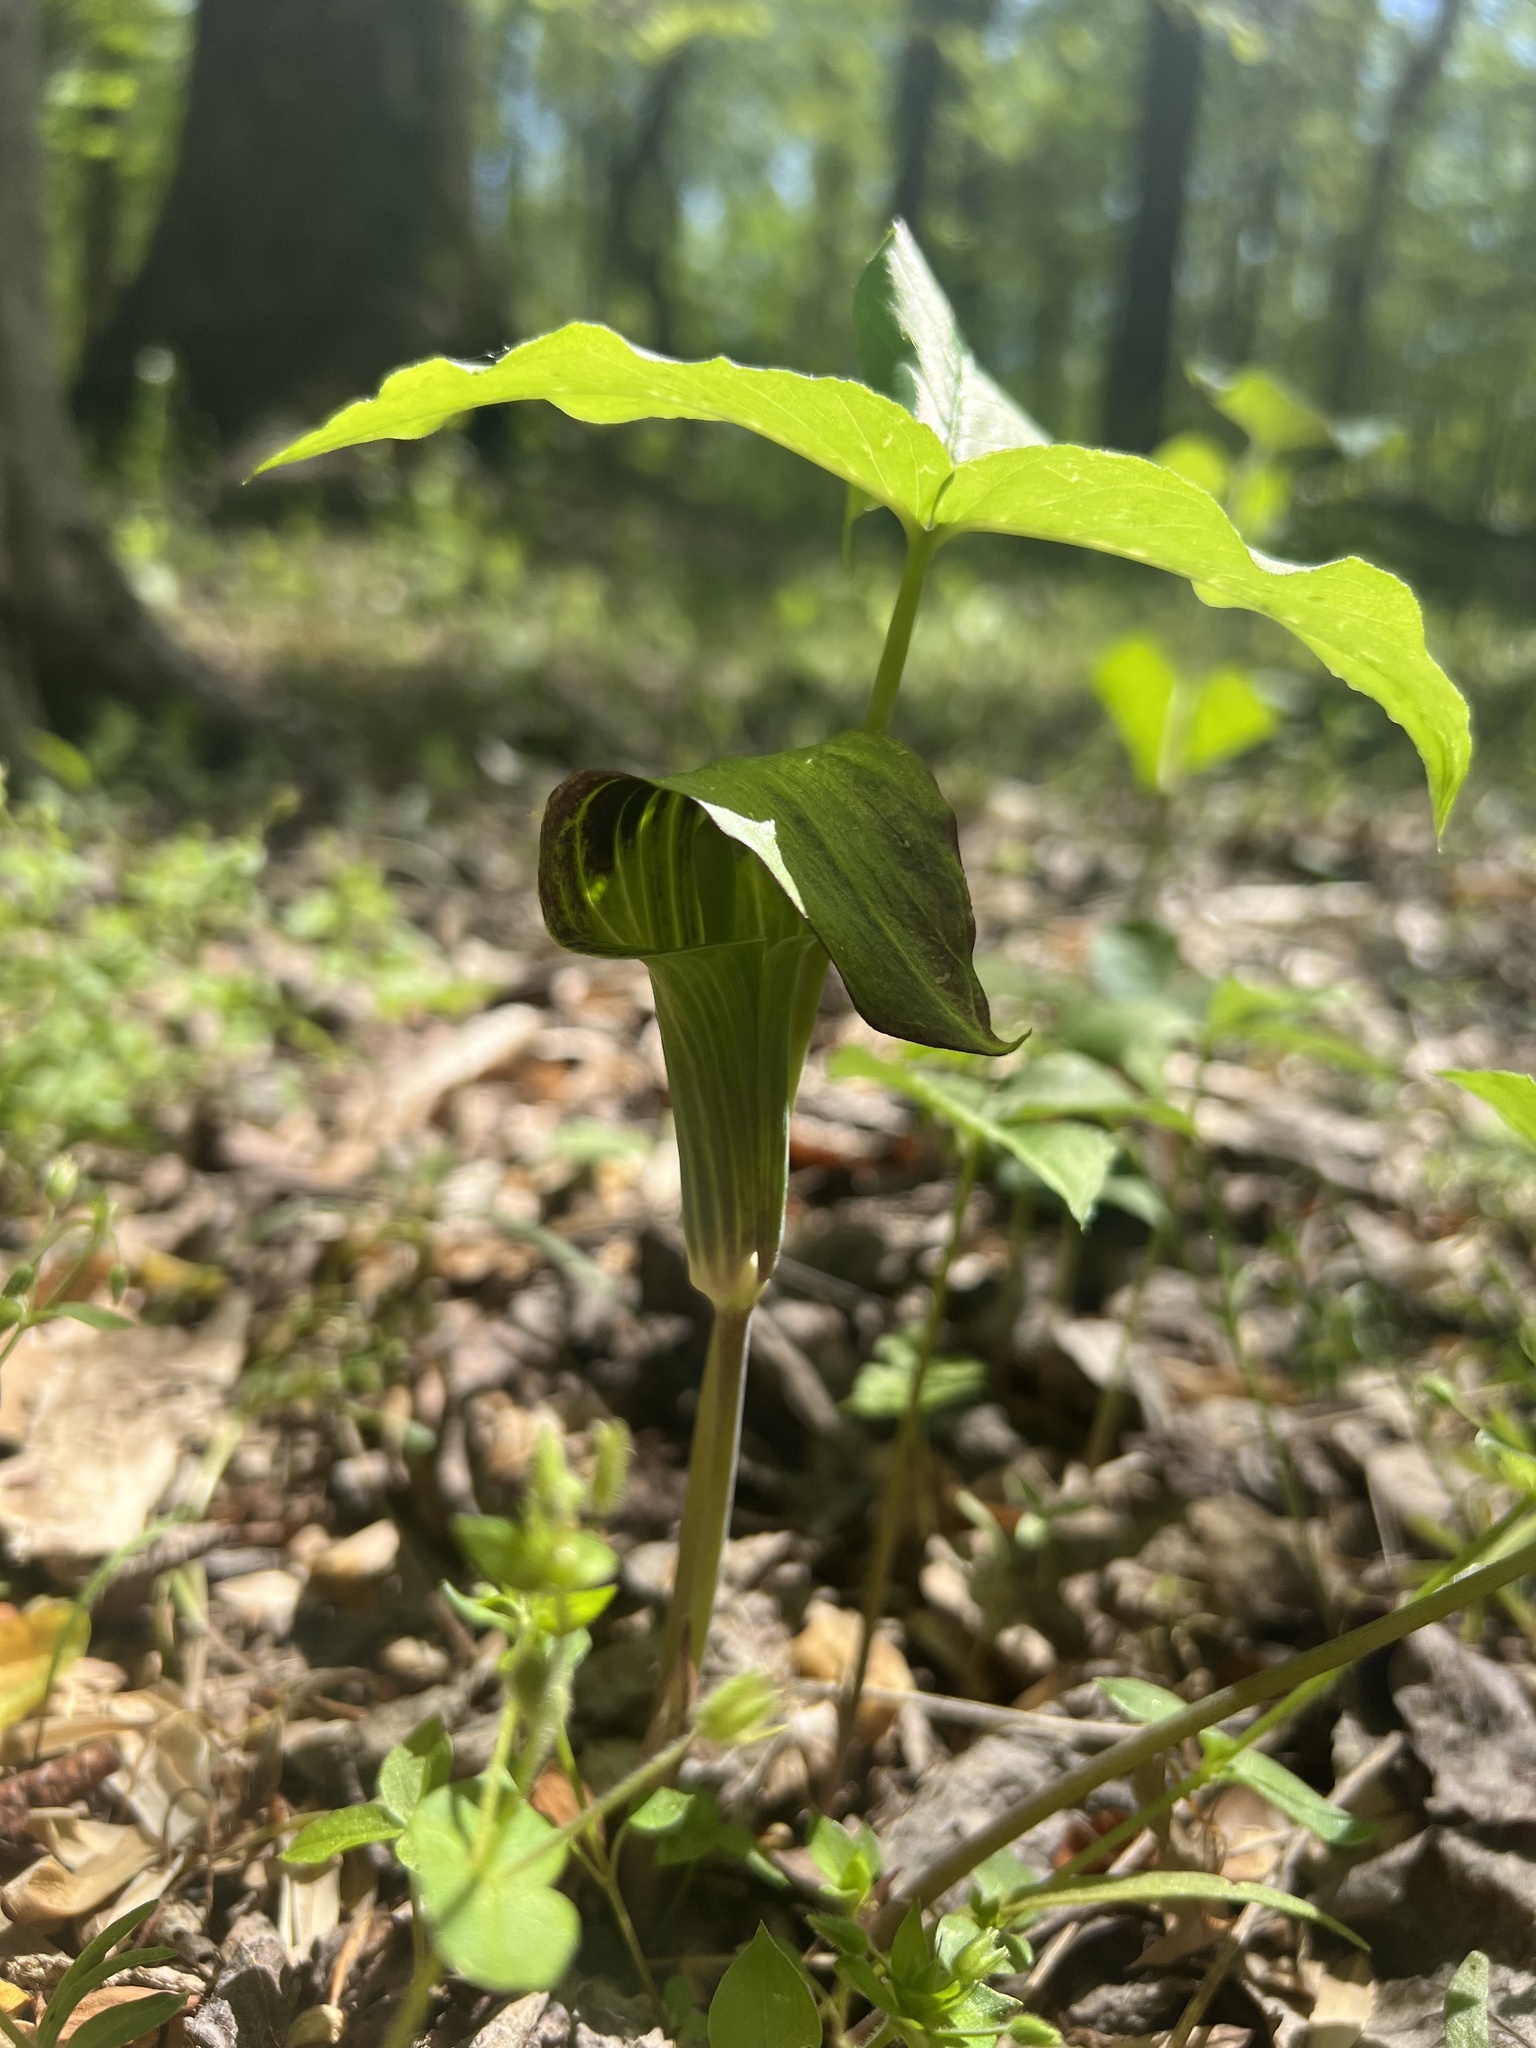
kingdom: Plantae
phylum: Tracheophyta
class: Liliopsida
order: Alismatales
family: Araceae
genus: Arisaema
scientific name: Arisaema triphyllum
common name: Jack-in-the-pulpit
